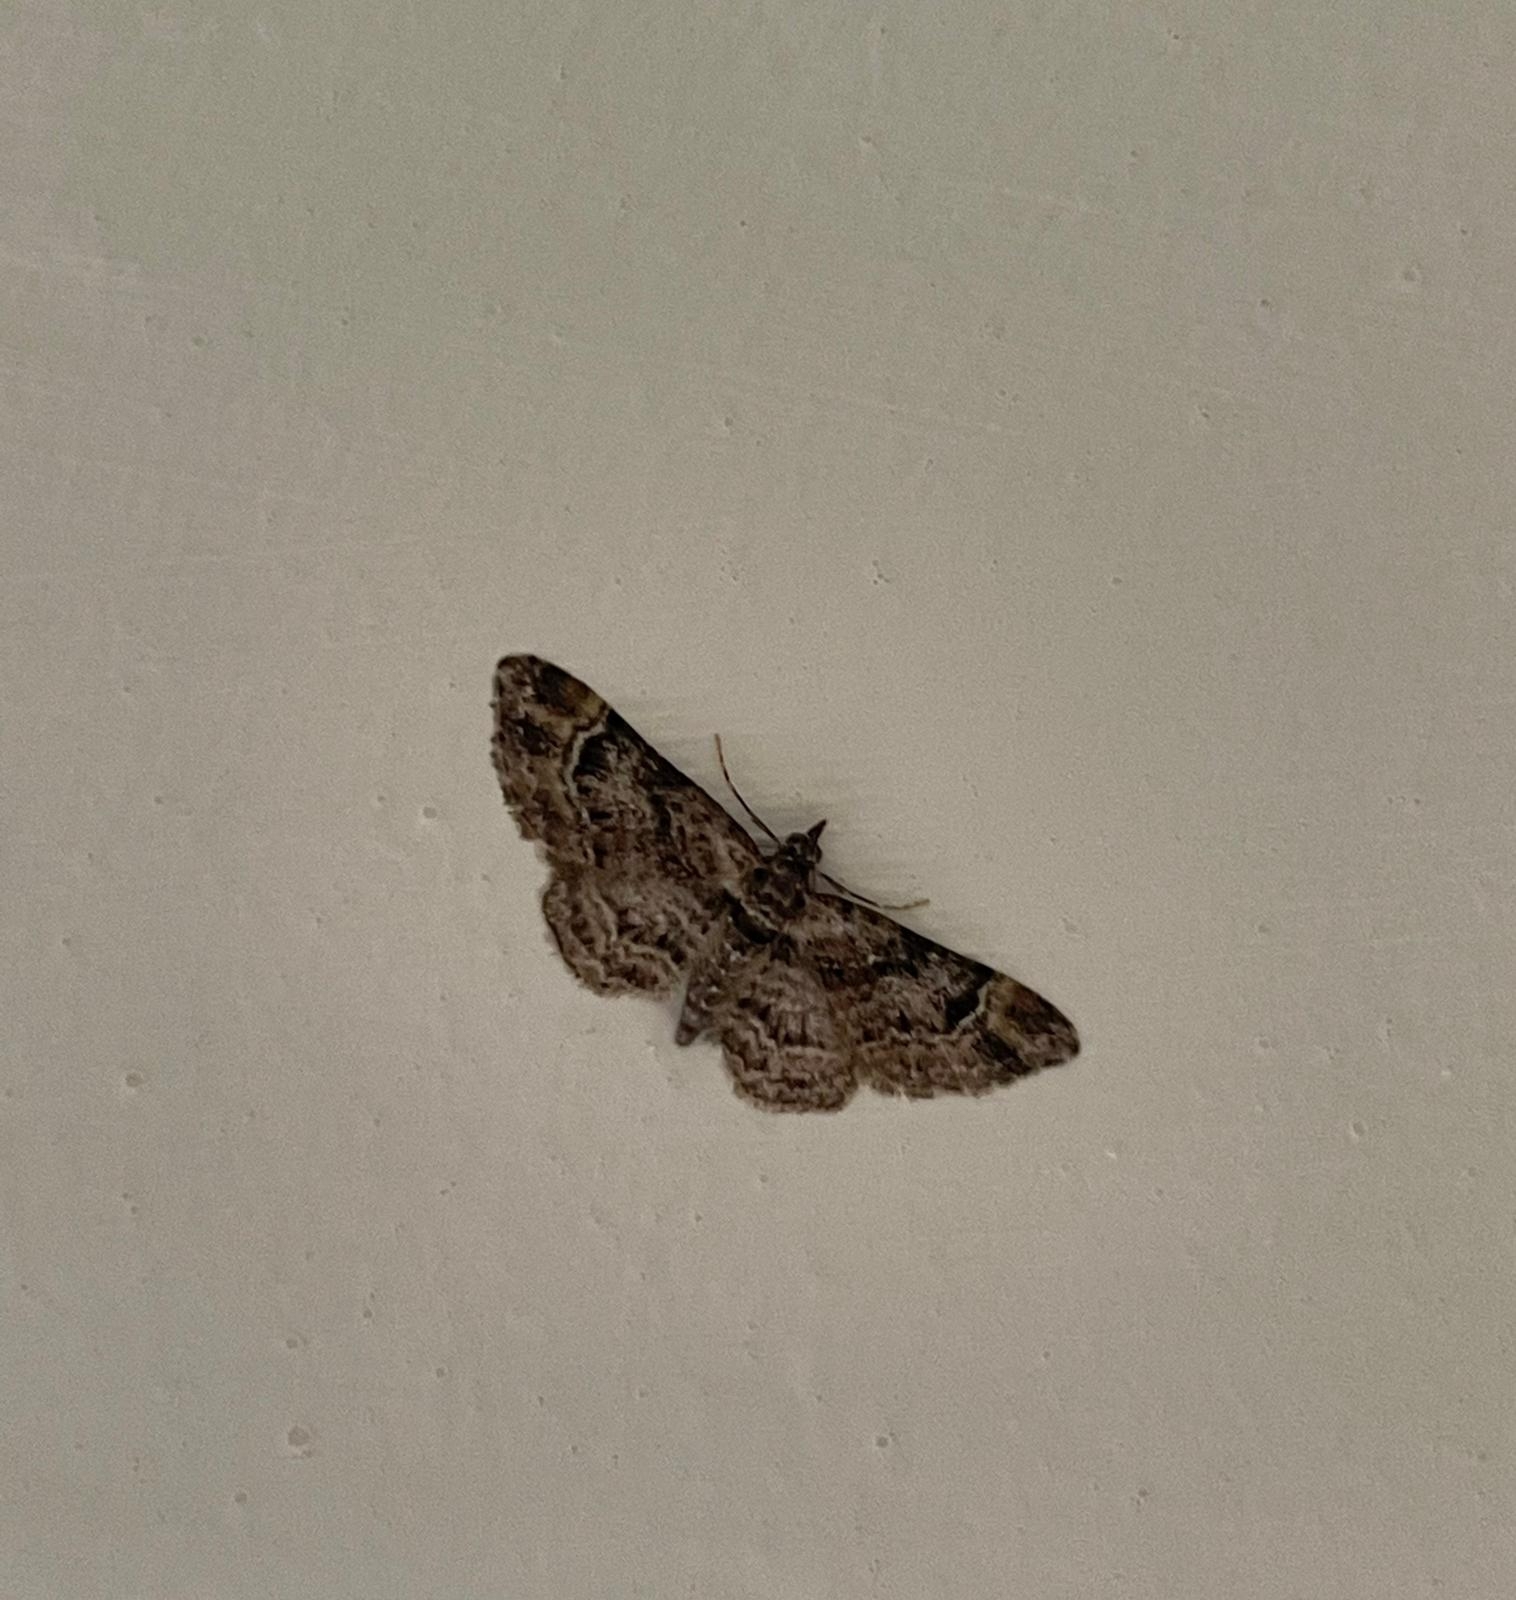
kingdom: Animalia
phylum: Arthropoda
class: Insecta
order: Lepidoptera
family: Geometridae
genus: Gymnoscelis
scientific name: Gymnoscelis rufifasciata
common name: Double-striped pug
